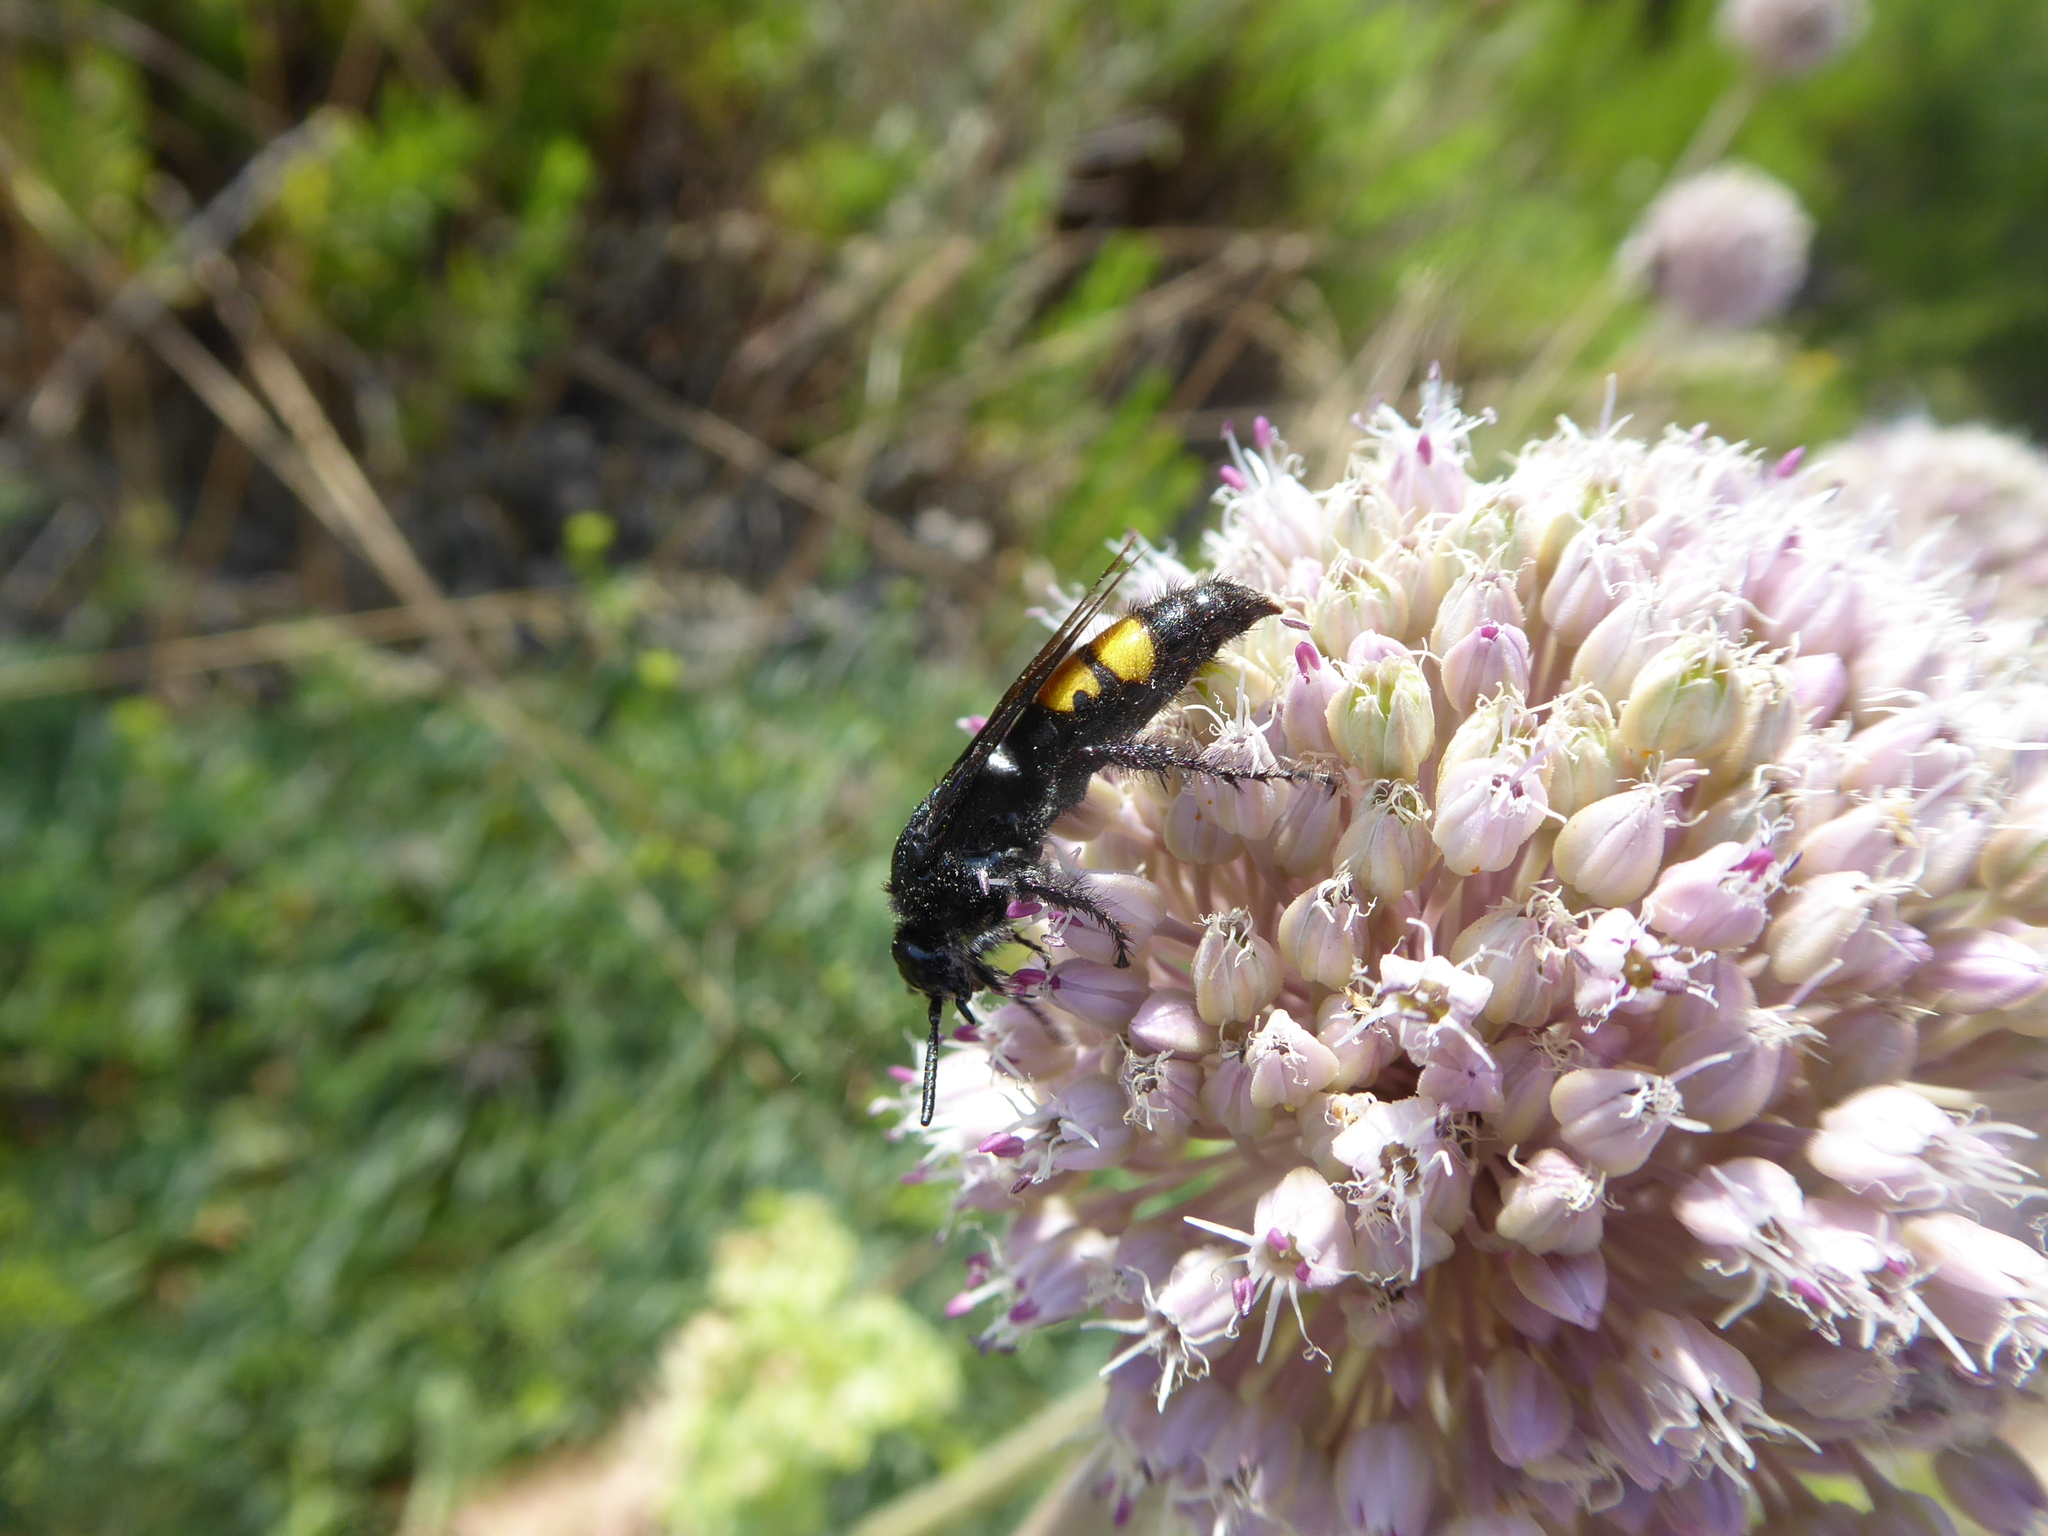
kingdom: Animalia
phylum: Arthropoda
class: Insecta
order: Hymenoptera
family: Scoliidae
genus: Scolia
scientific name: Scolia hirta
